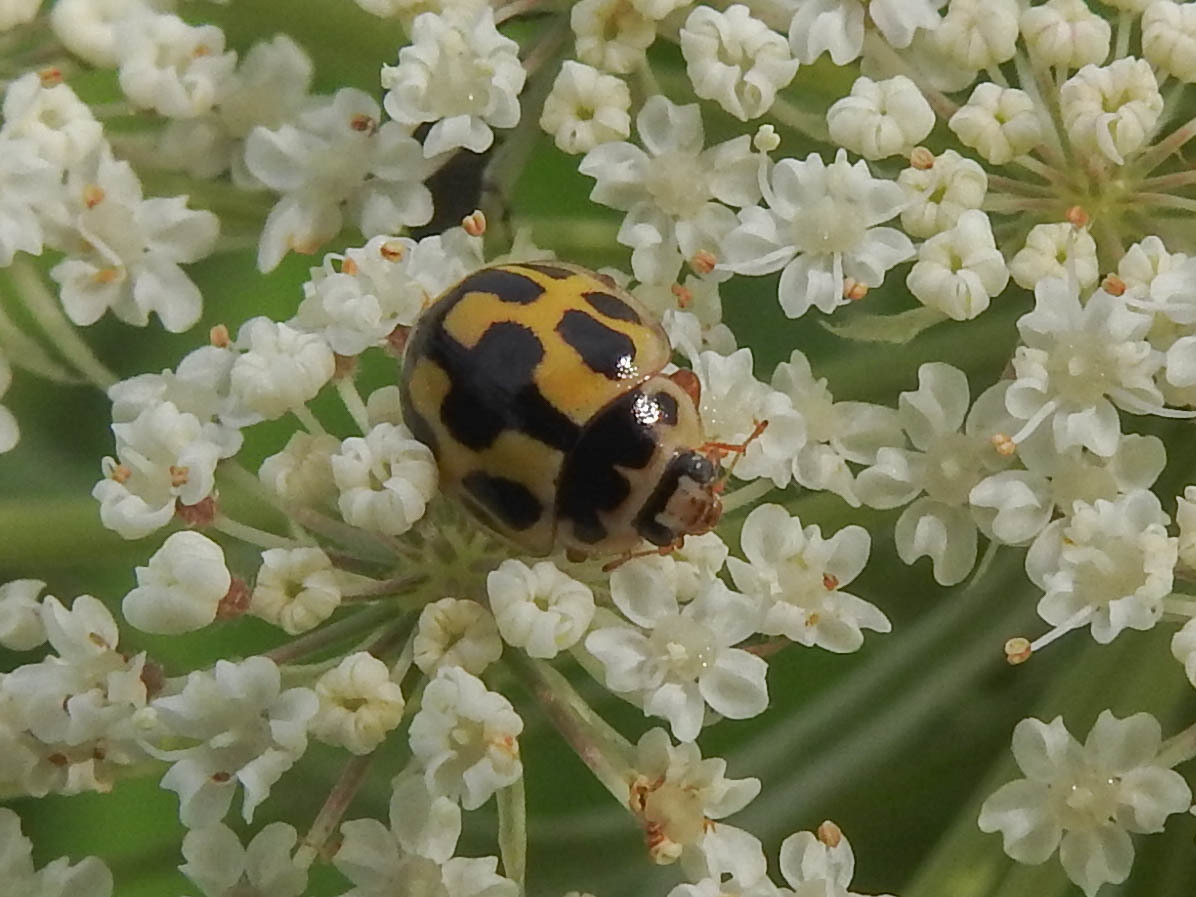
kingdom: Animalia
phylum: Arthropoda
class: Insecta
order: Coleoptera
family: Coccinellidae
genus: Propylaea
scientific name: Propylaea quatuordecimpunctata
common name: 14-spotted ladybird beetle
